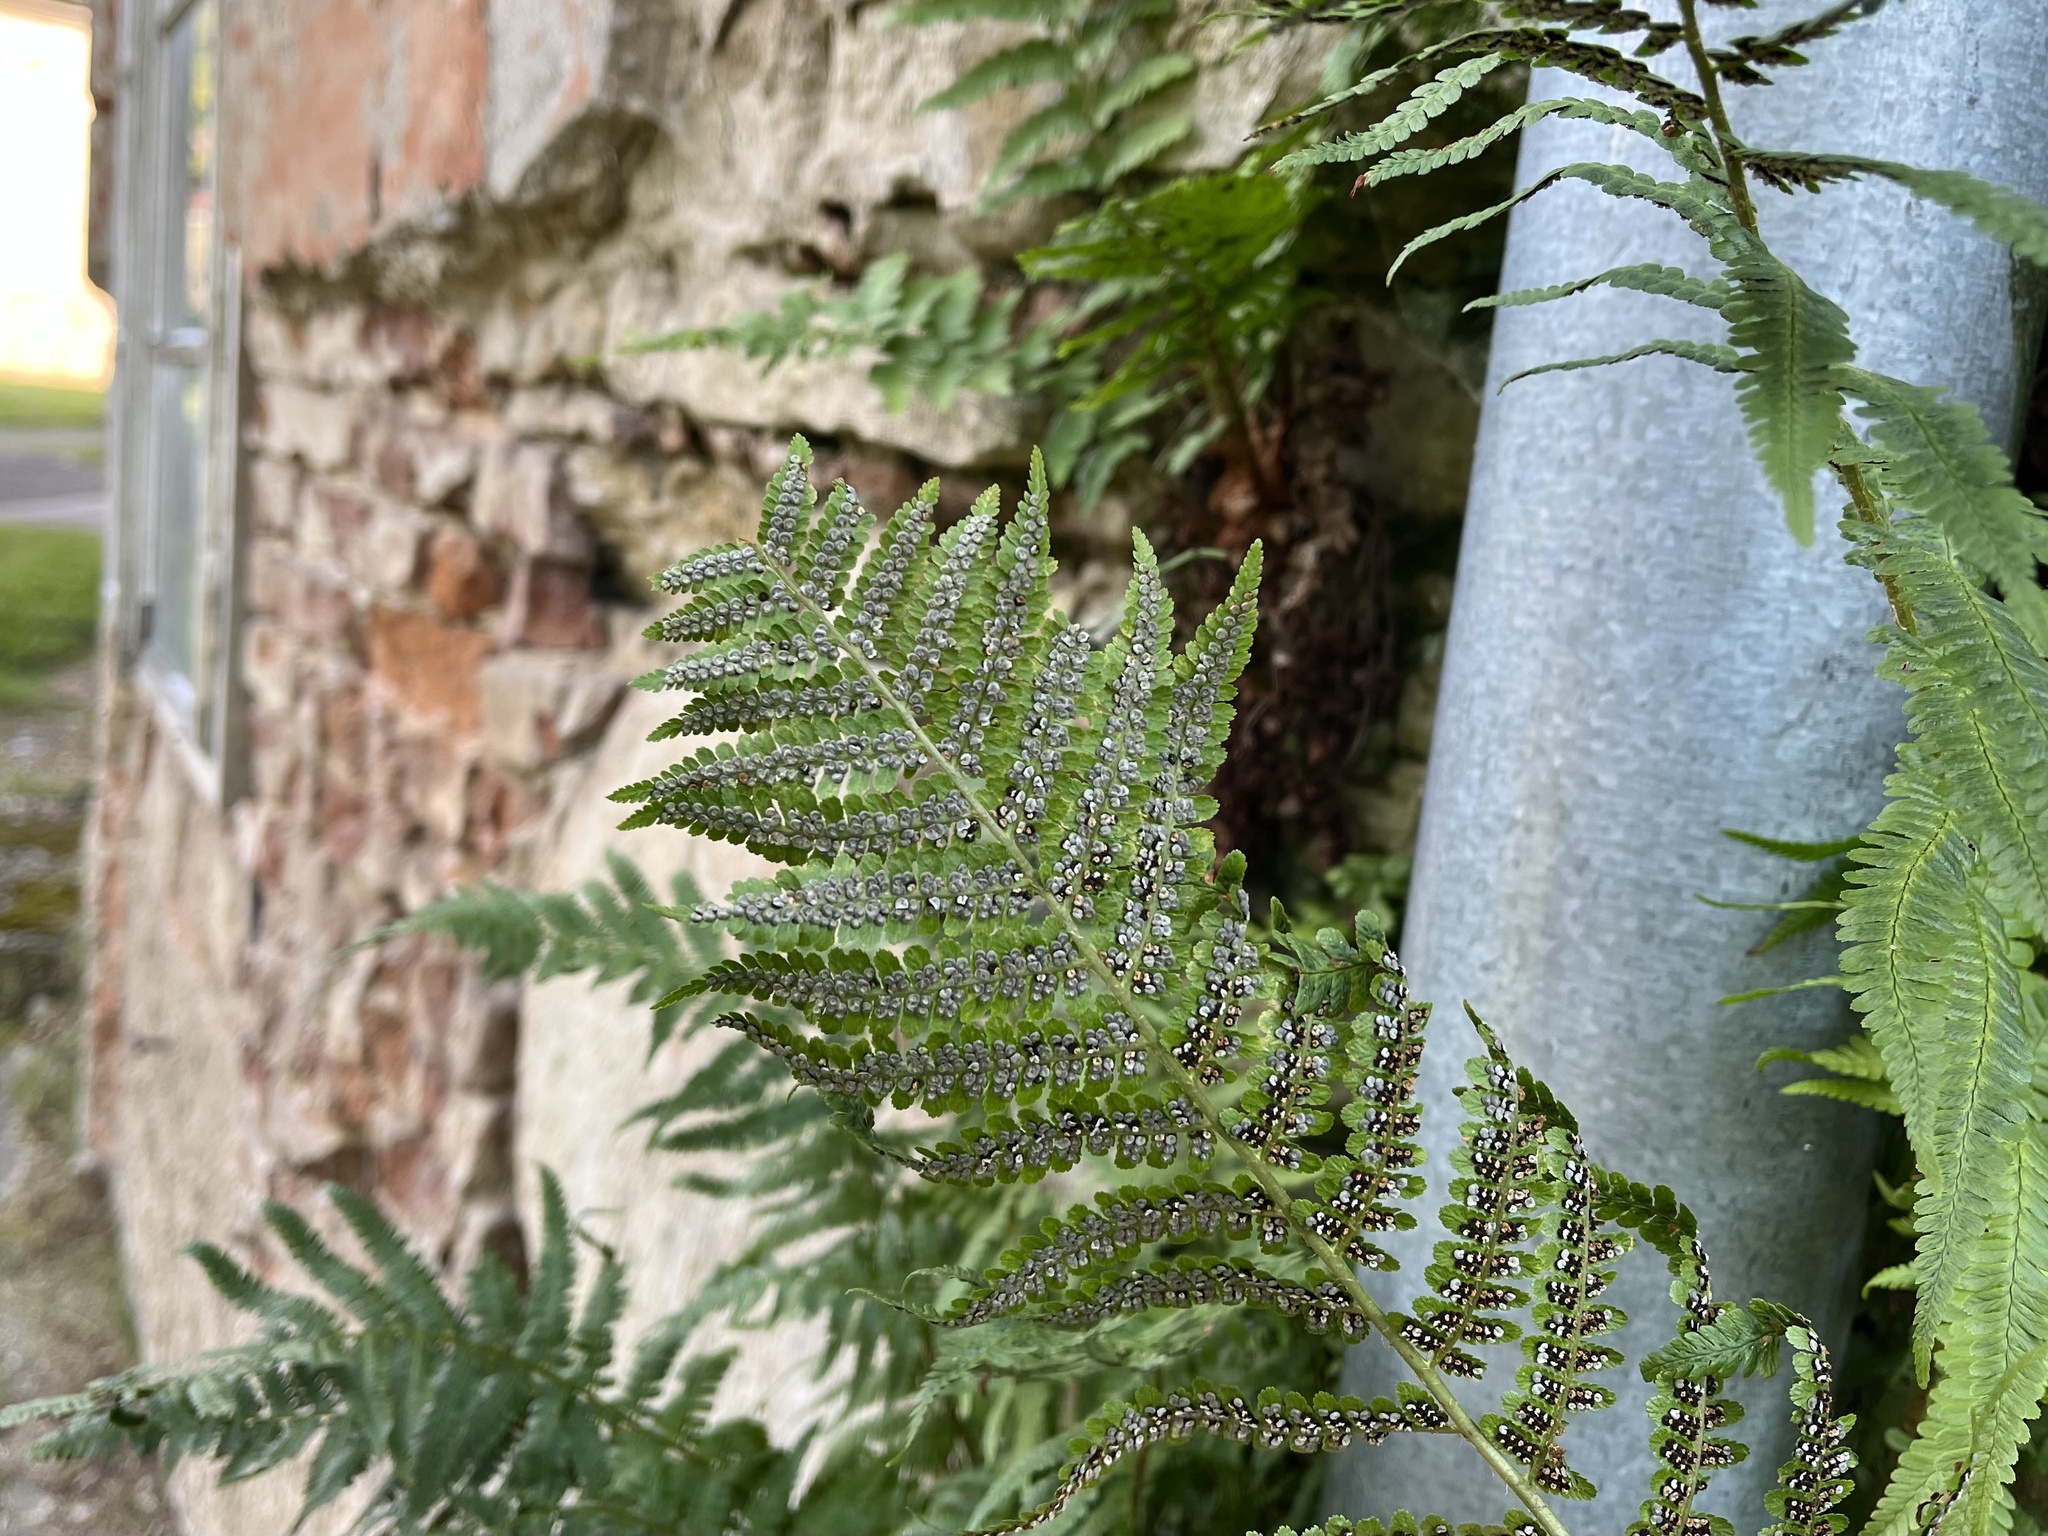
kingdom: Plantae
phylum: Tracheophyta
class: Polypodiopsida
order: Polypodiales
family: Dryopteridaceae
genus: Dryopteris
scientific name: Dryopteris filix-mas
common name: Male fern
